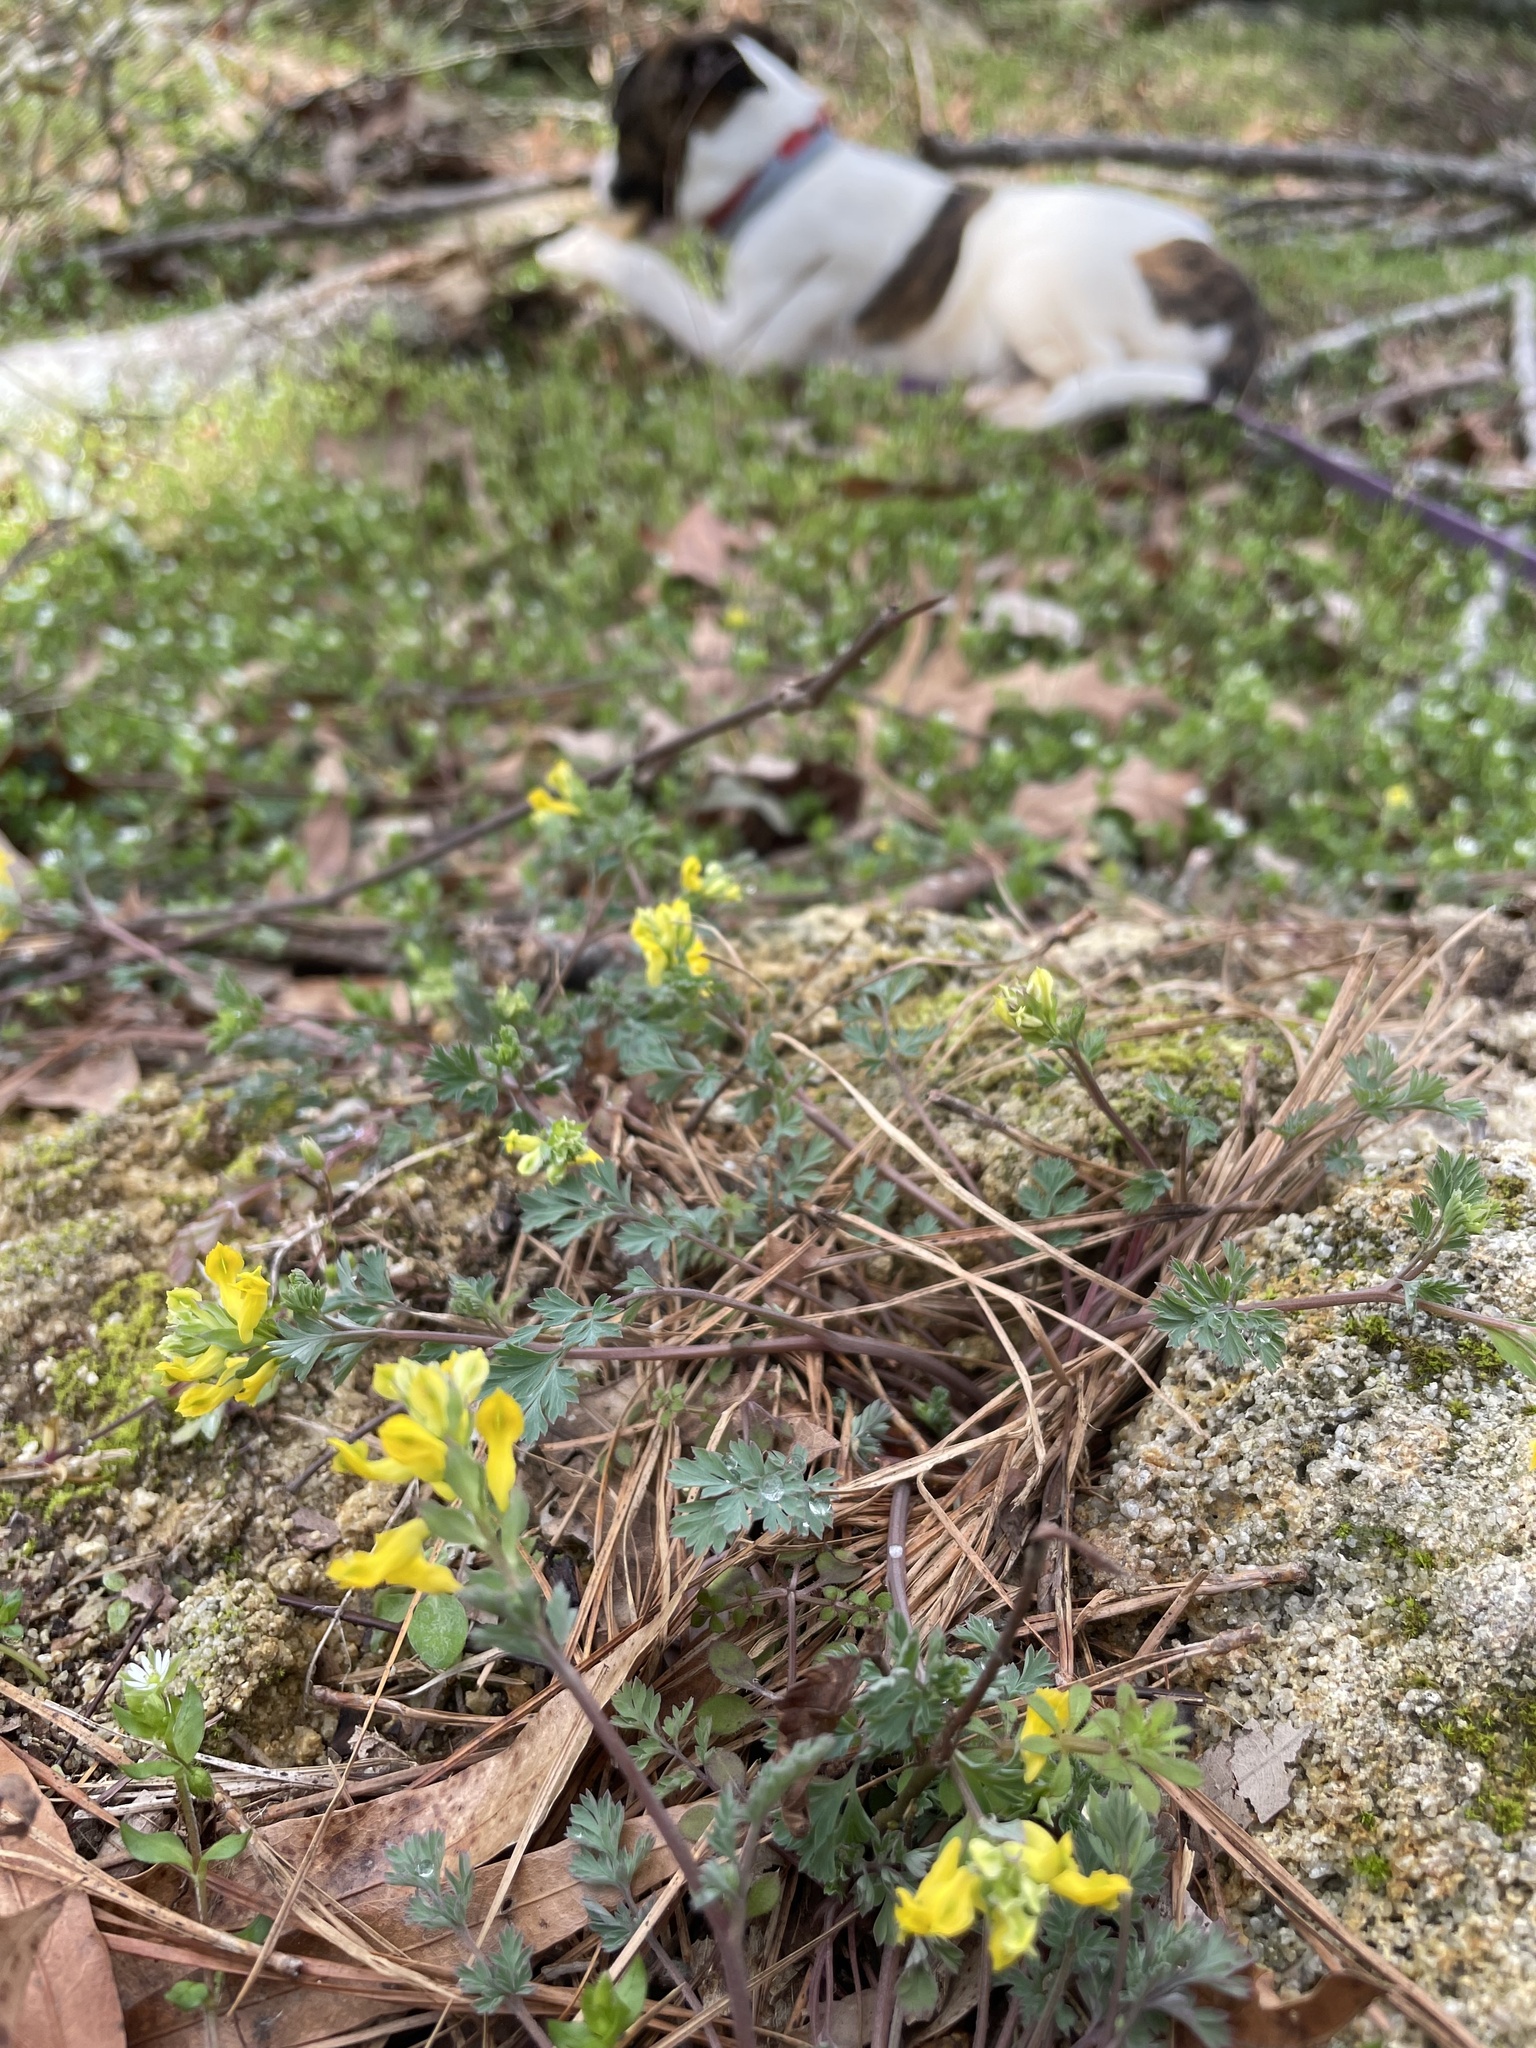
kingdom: Plantae
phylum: Tracheophyta
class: Magnoliopsida
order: Ranunculales
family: Papaveraceae
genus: Corydalis
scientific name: Corydalis flavula
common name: Yellow corydalis
